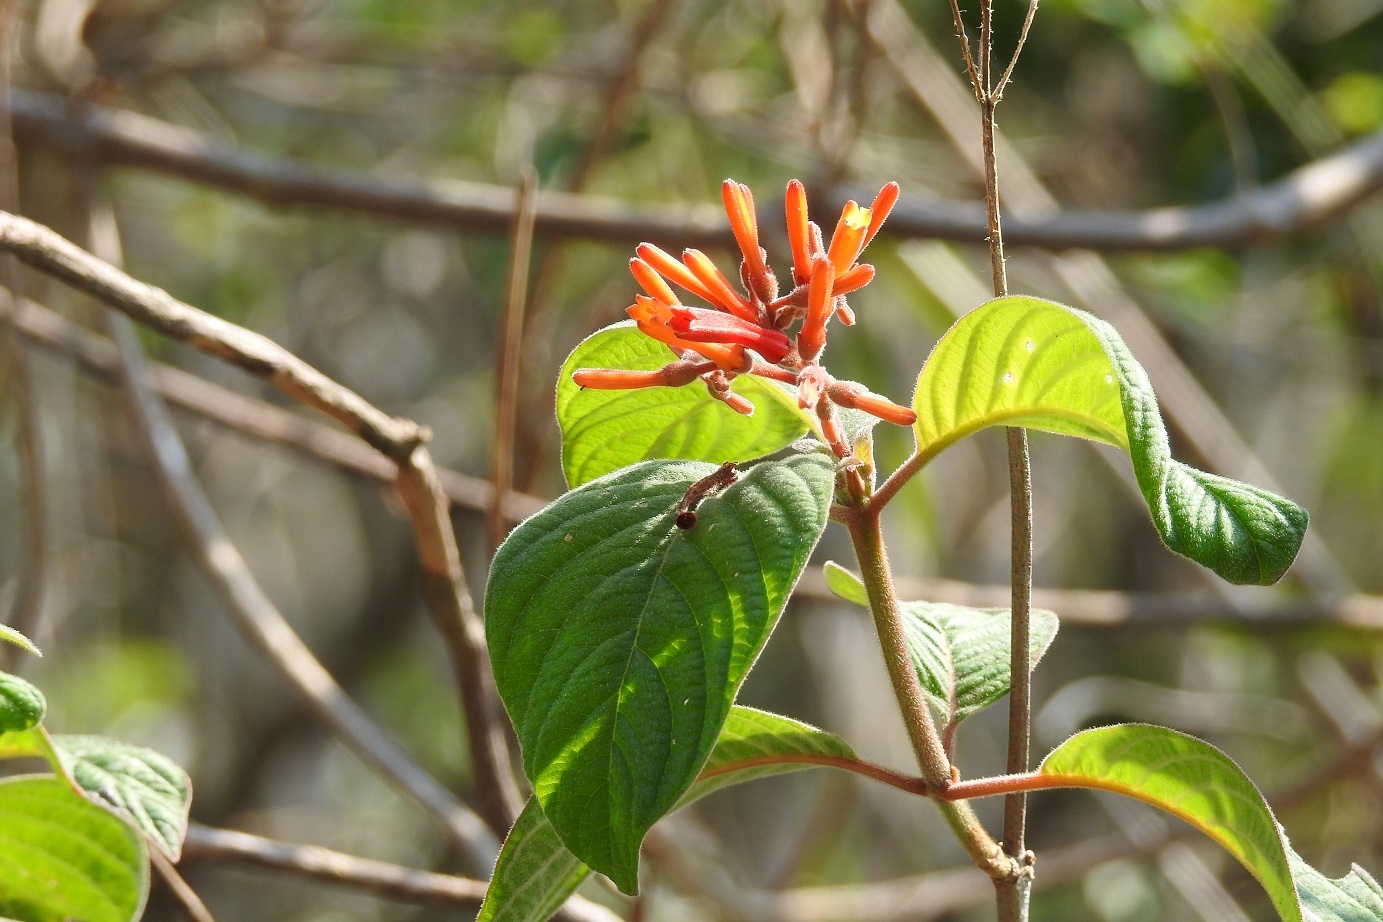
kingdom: Plantae
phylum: Tracheophyta
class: Magnoliopsida
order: Gentianales
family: Rubiaceae
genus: Hamelia
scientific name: Hamelia patens
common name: Redhead
